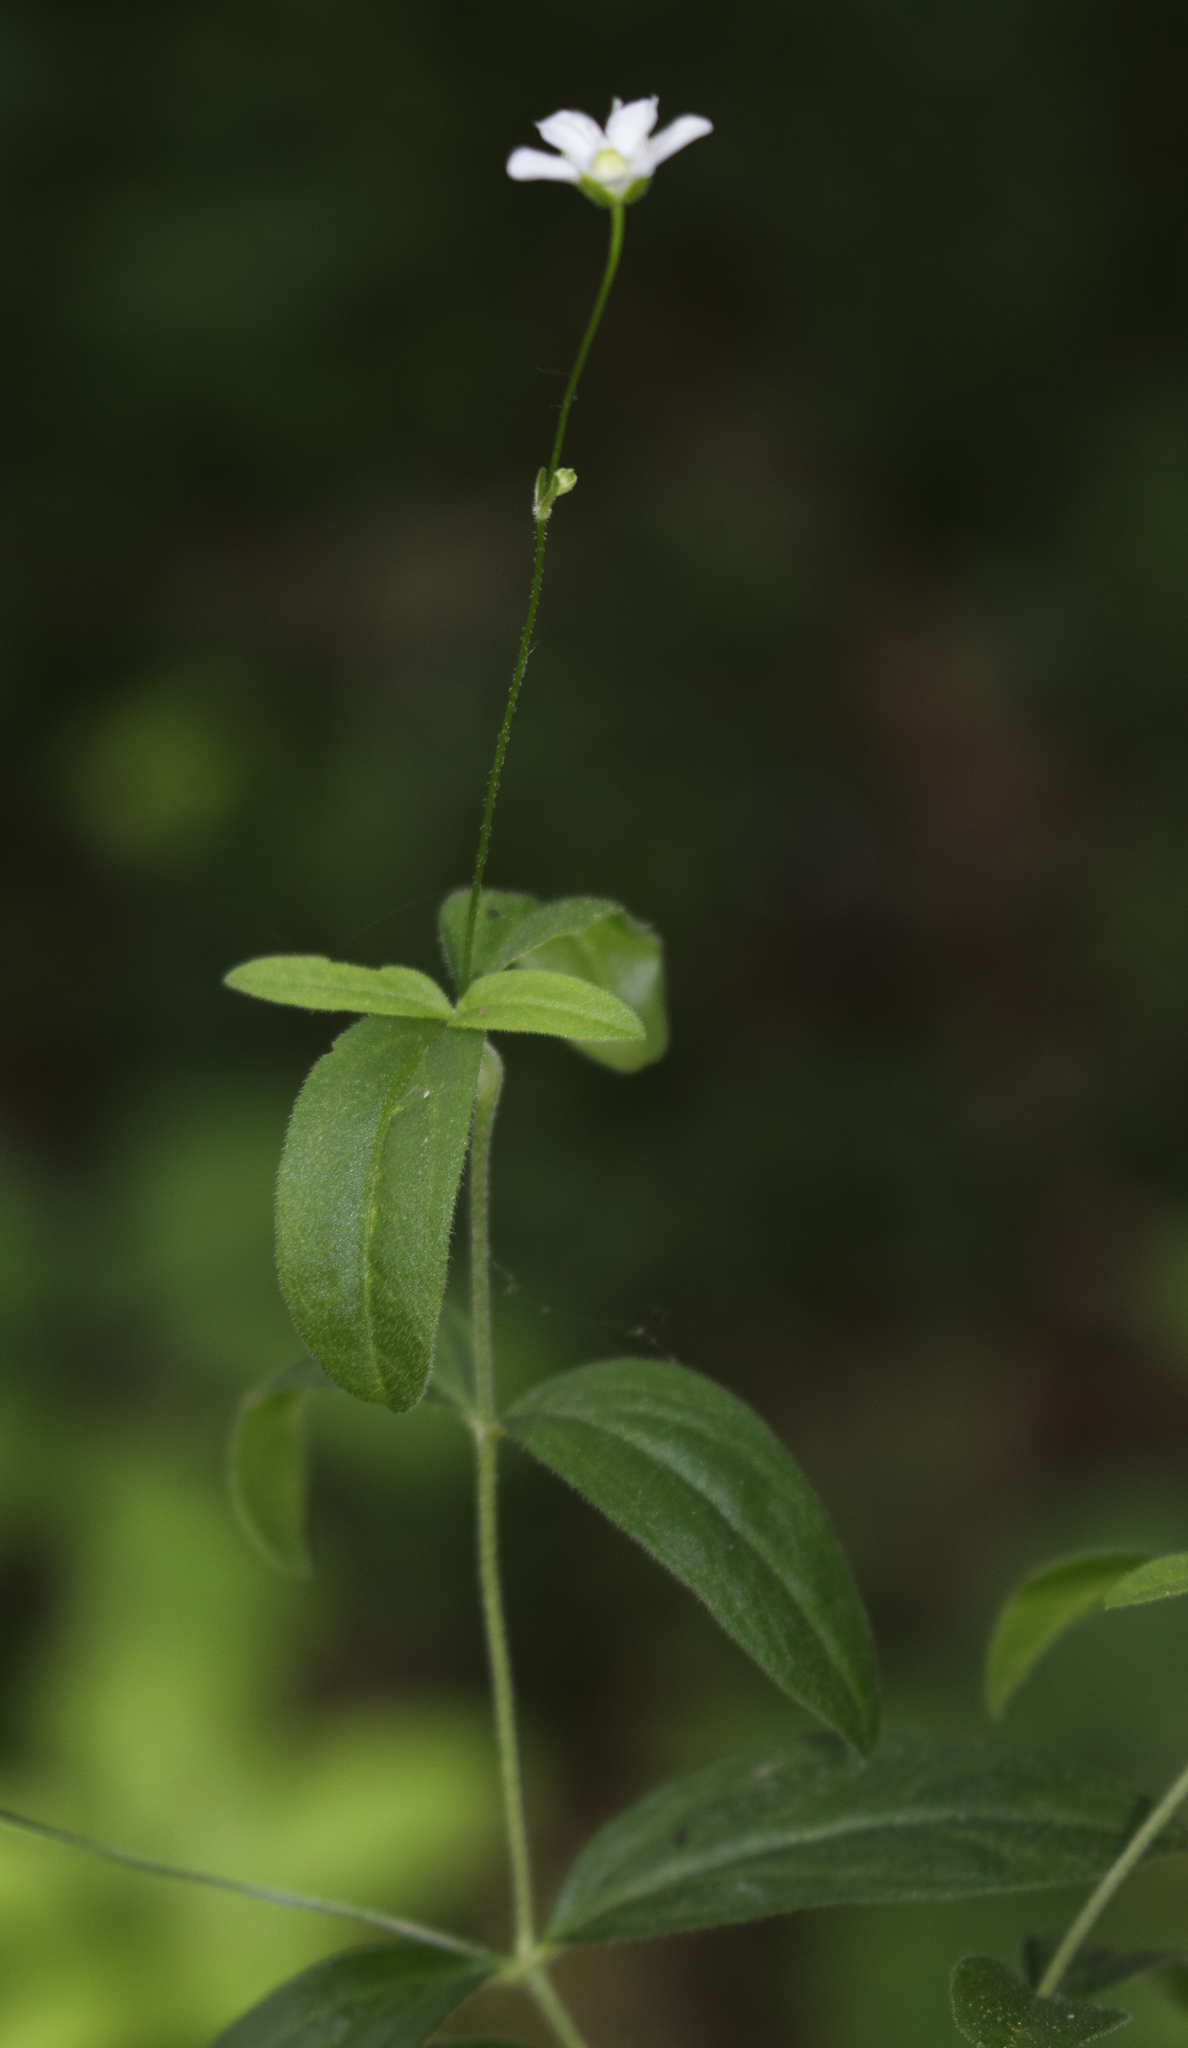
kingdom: Plantae
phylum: Tracheophyta
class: Magnoliopsida
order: Caryophyllales
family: Caryophyllaceae
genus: Moehringia
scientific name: Moehringia lateriflora
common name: Blunt-leaved sandwort
